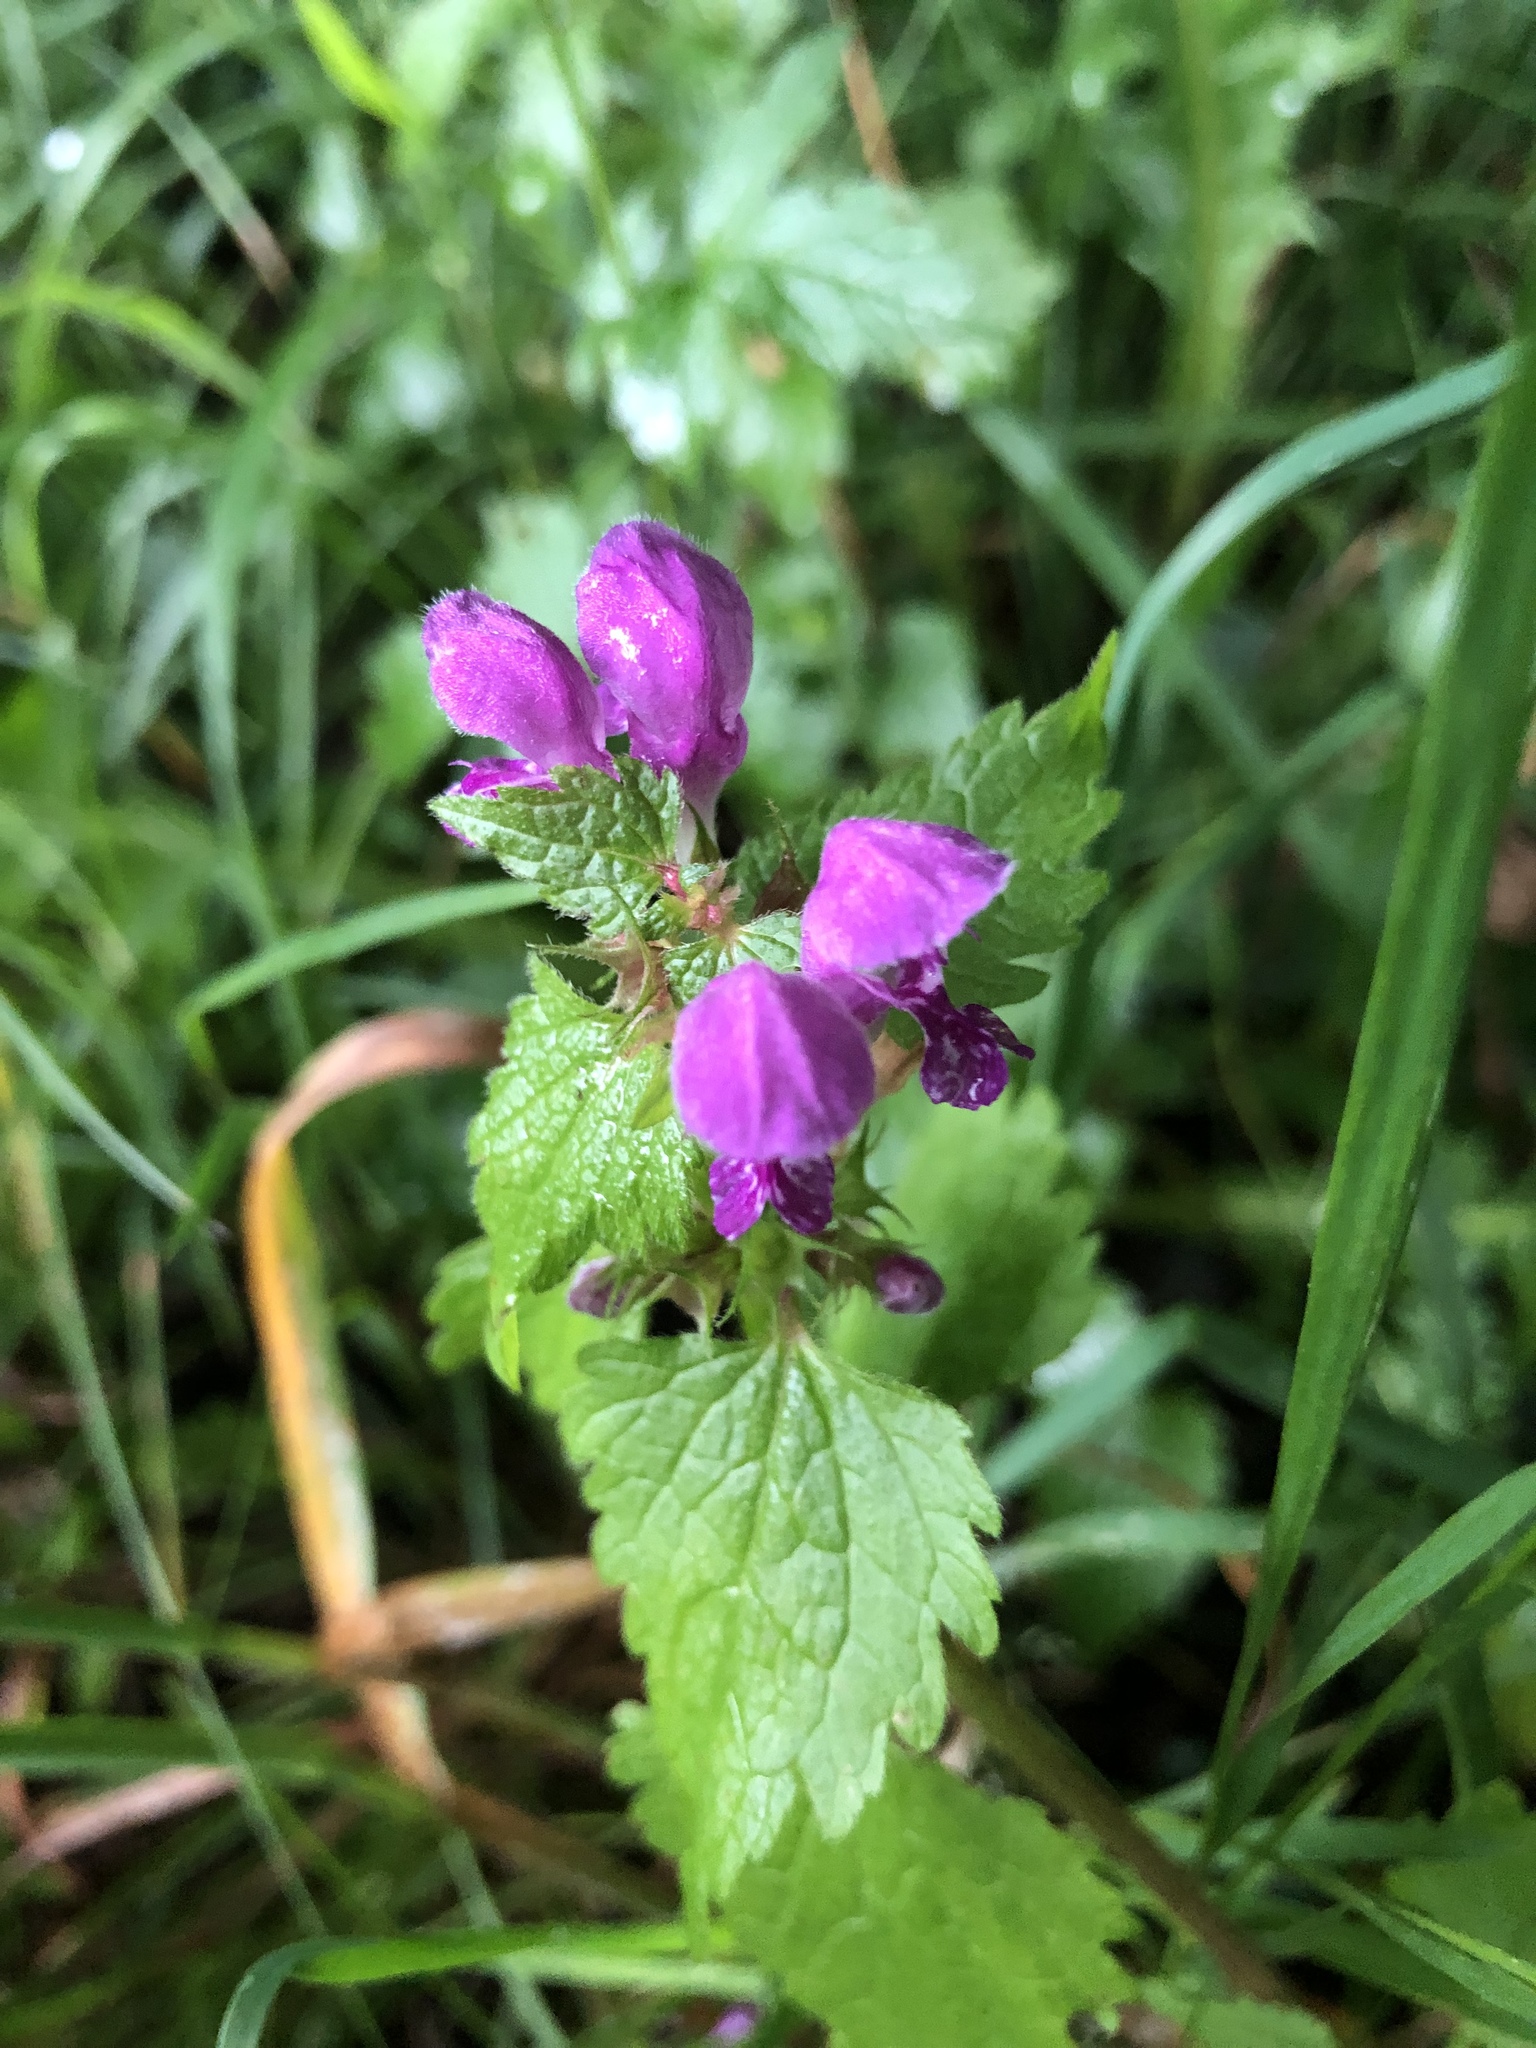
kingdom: Plantae
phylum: Tracheophyta
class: Magnoliopsida
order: Lamiales
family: Lamiaceae
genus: Lamium
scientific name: Lamium maculatum
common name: Spotted dead-nettle
